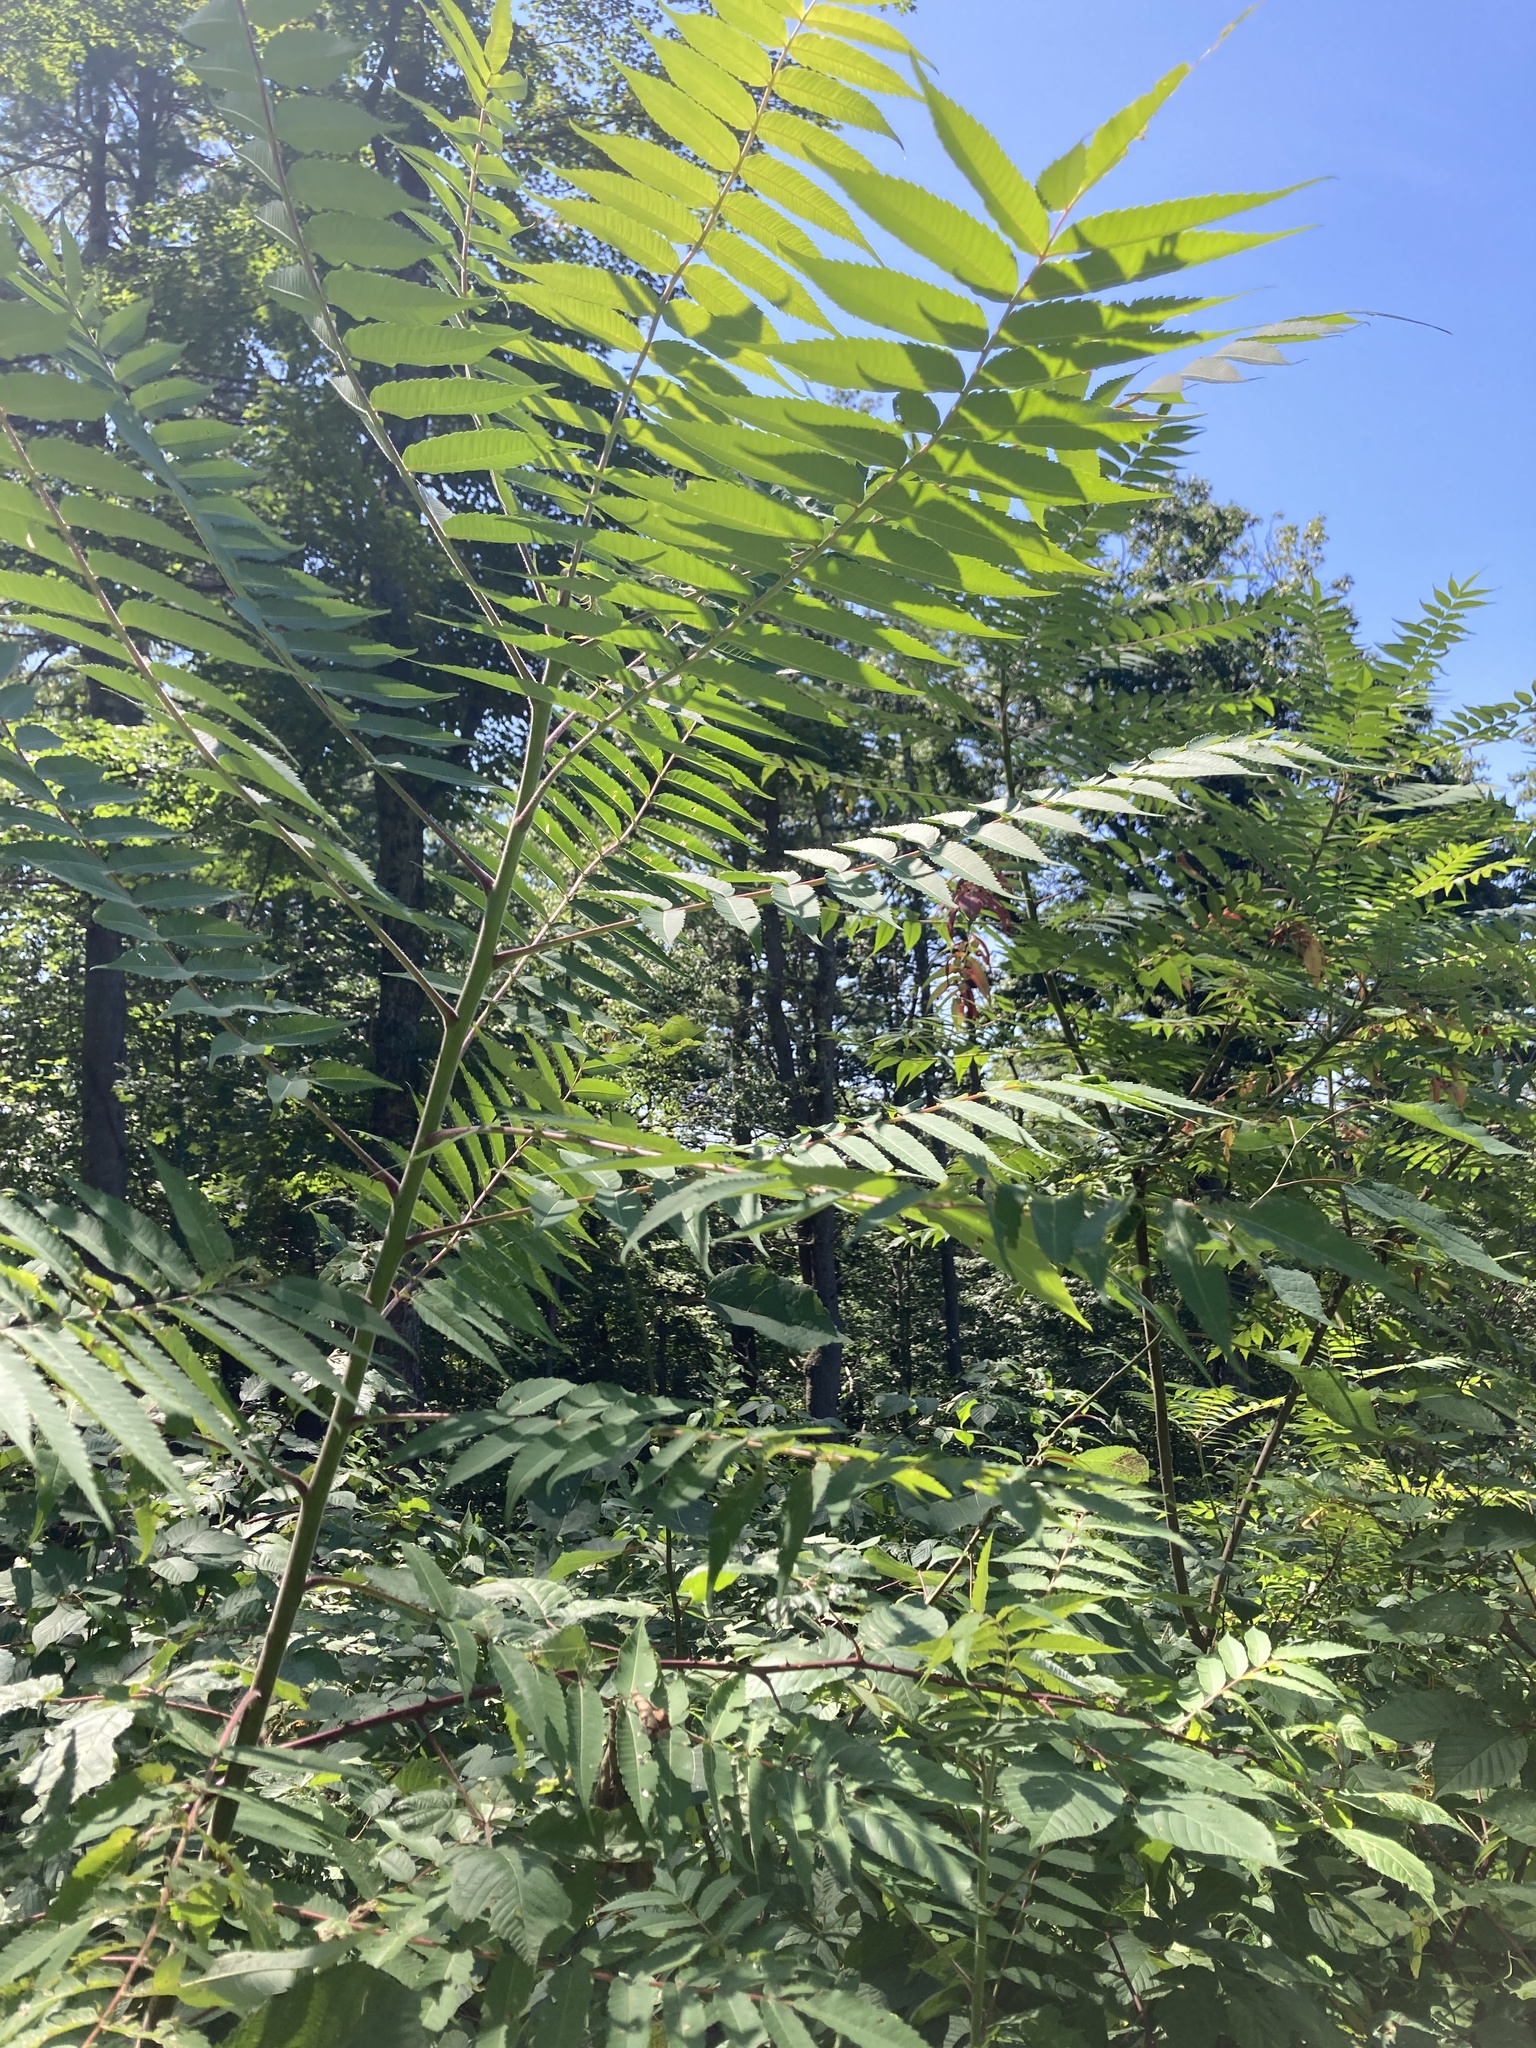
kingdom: Plantae
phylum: Tracheophyta
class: Magnoliopsida
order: Sapindales
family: Anacardiaceae
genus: Rhus
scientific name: Rhus typhina
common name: Staghorn sumac
